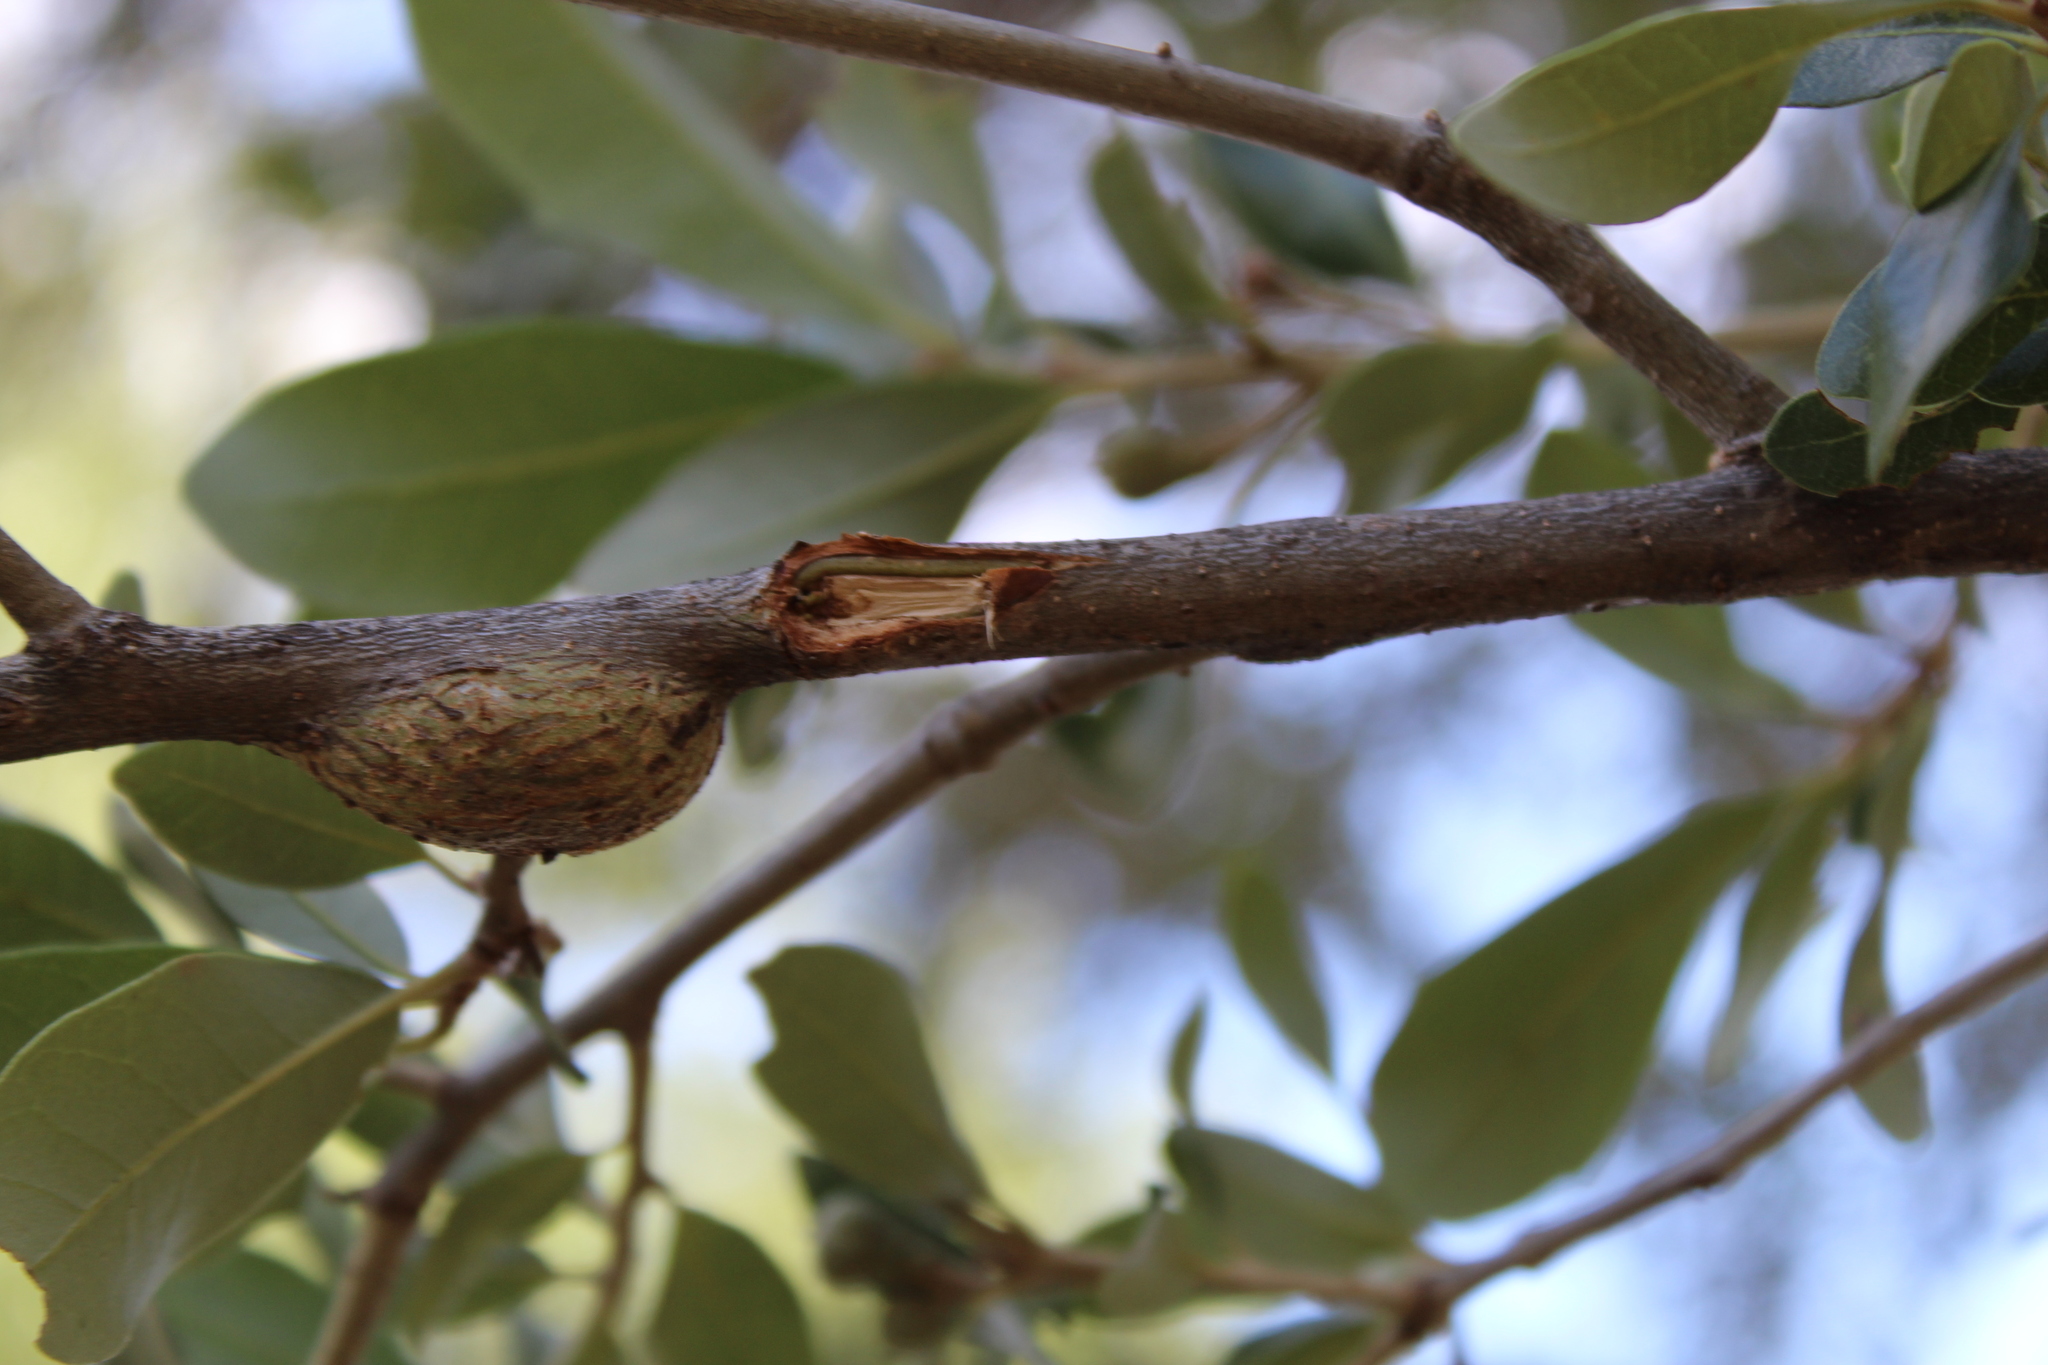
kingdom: Animalia
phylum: Arthropoda
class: Insecta
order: Hymenoptera
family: Cynipidae
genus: Callirhytis
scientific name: Callirhytis
